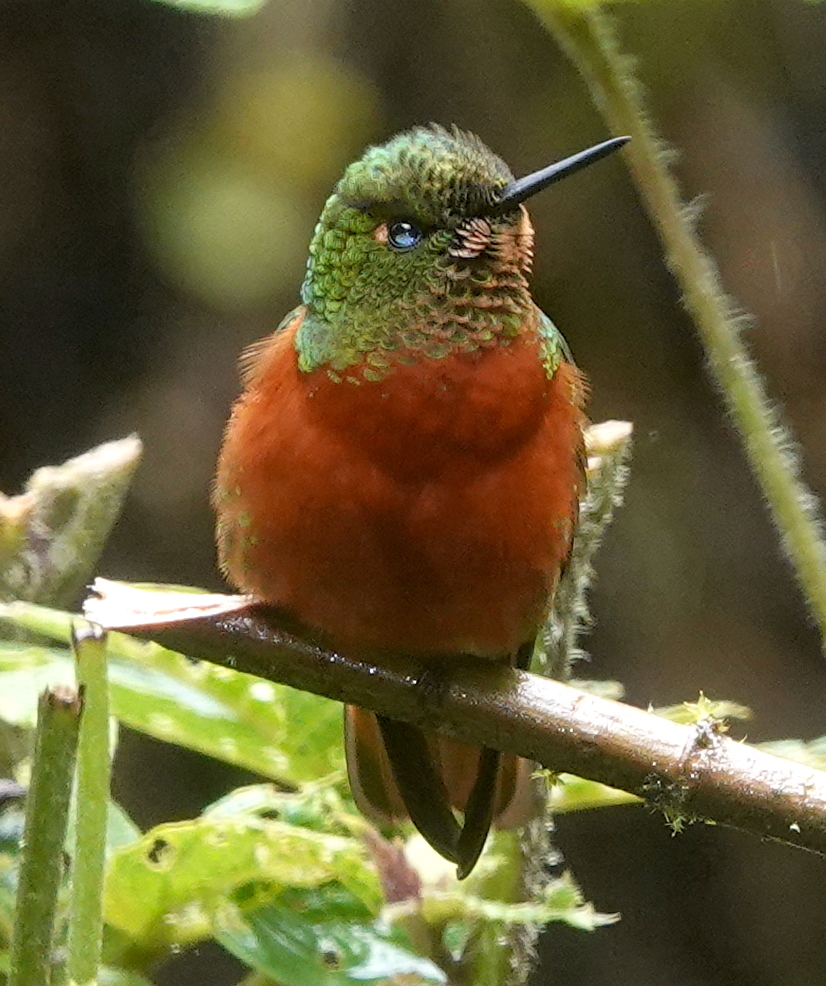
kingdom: Animalia
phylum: Chordata
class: Aves
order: Apodiformes
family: Trochilidae
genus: Boissonneaua
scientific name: Boissonneaua matthewsii
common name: Chestnut-breasted coronet
